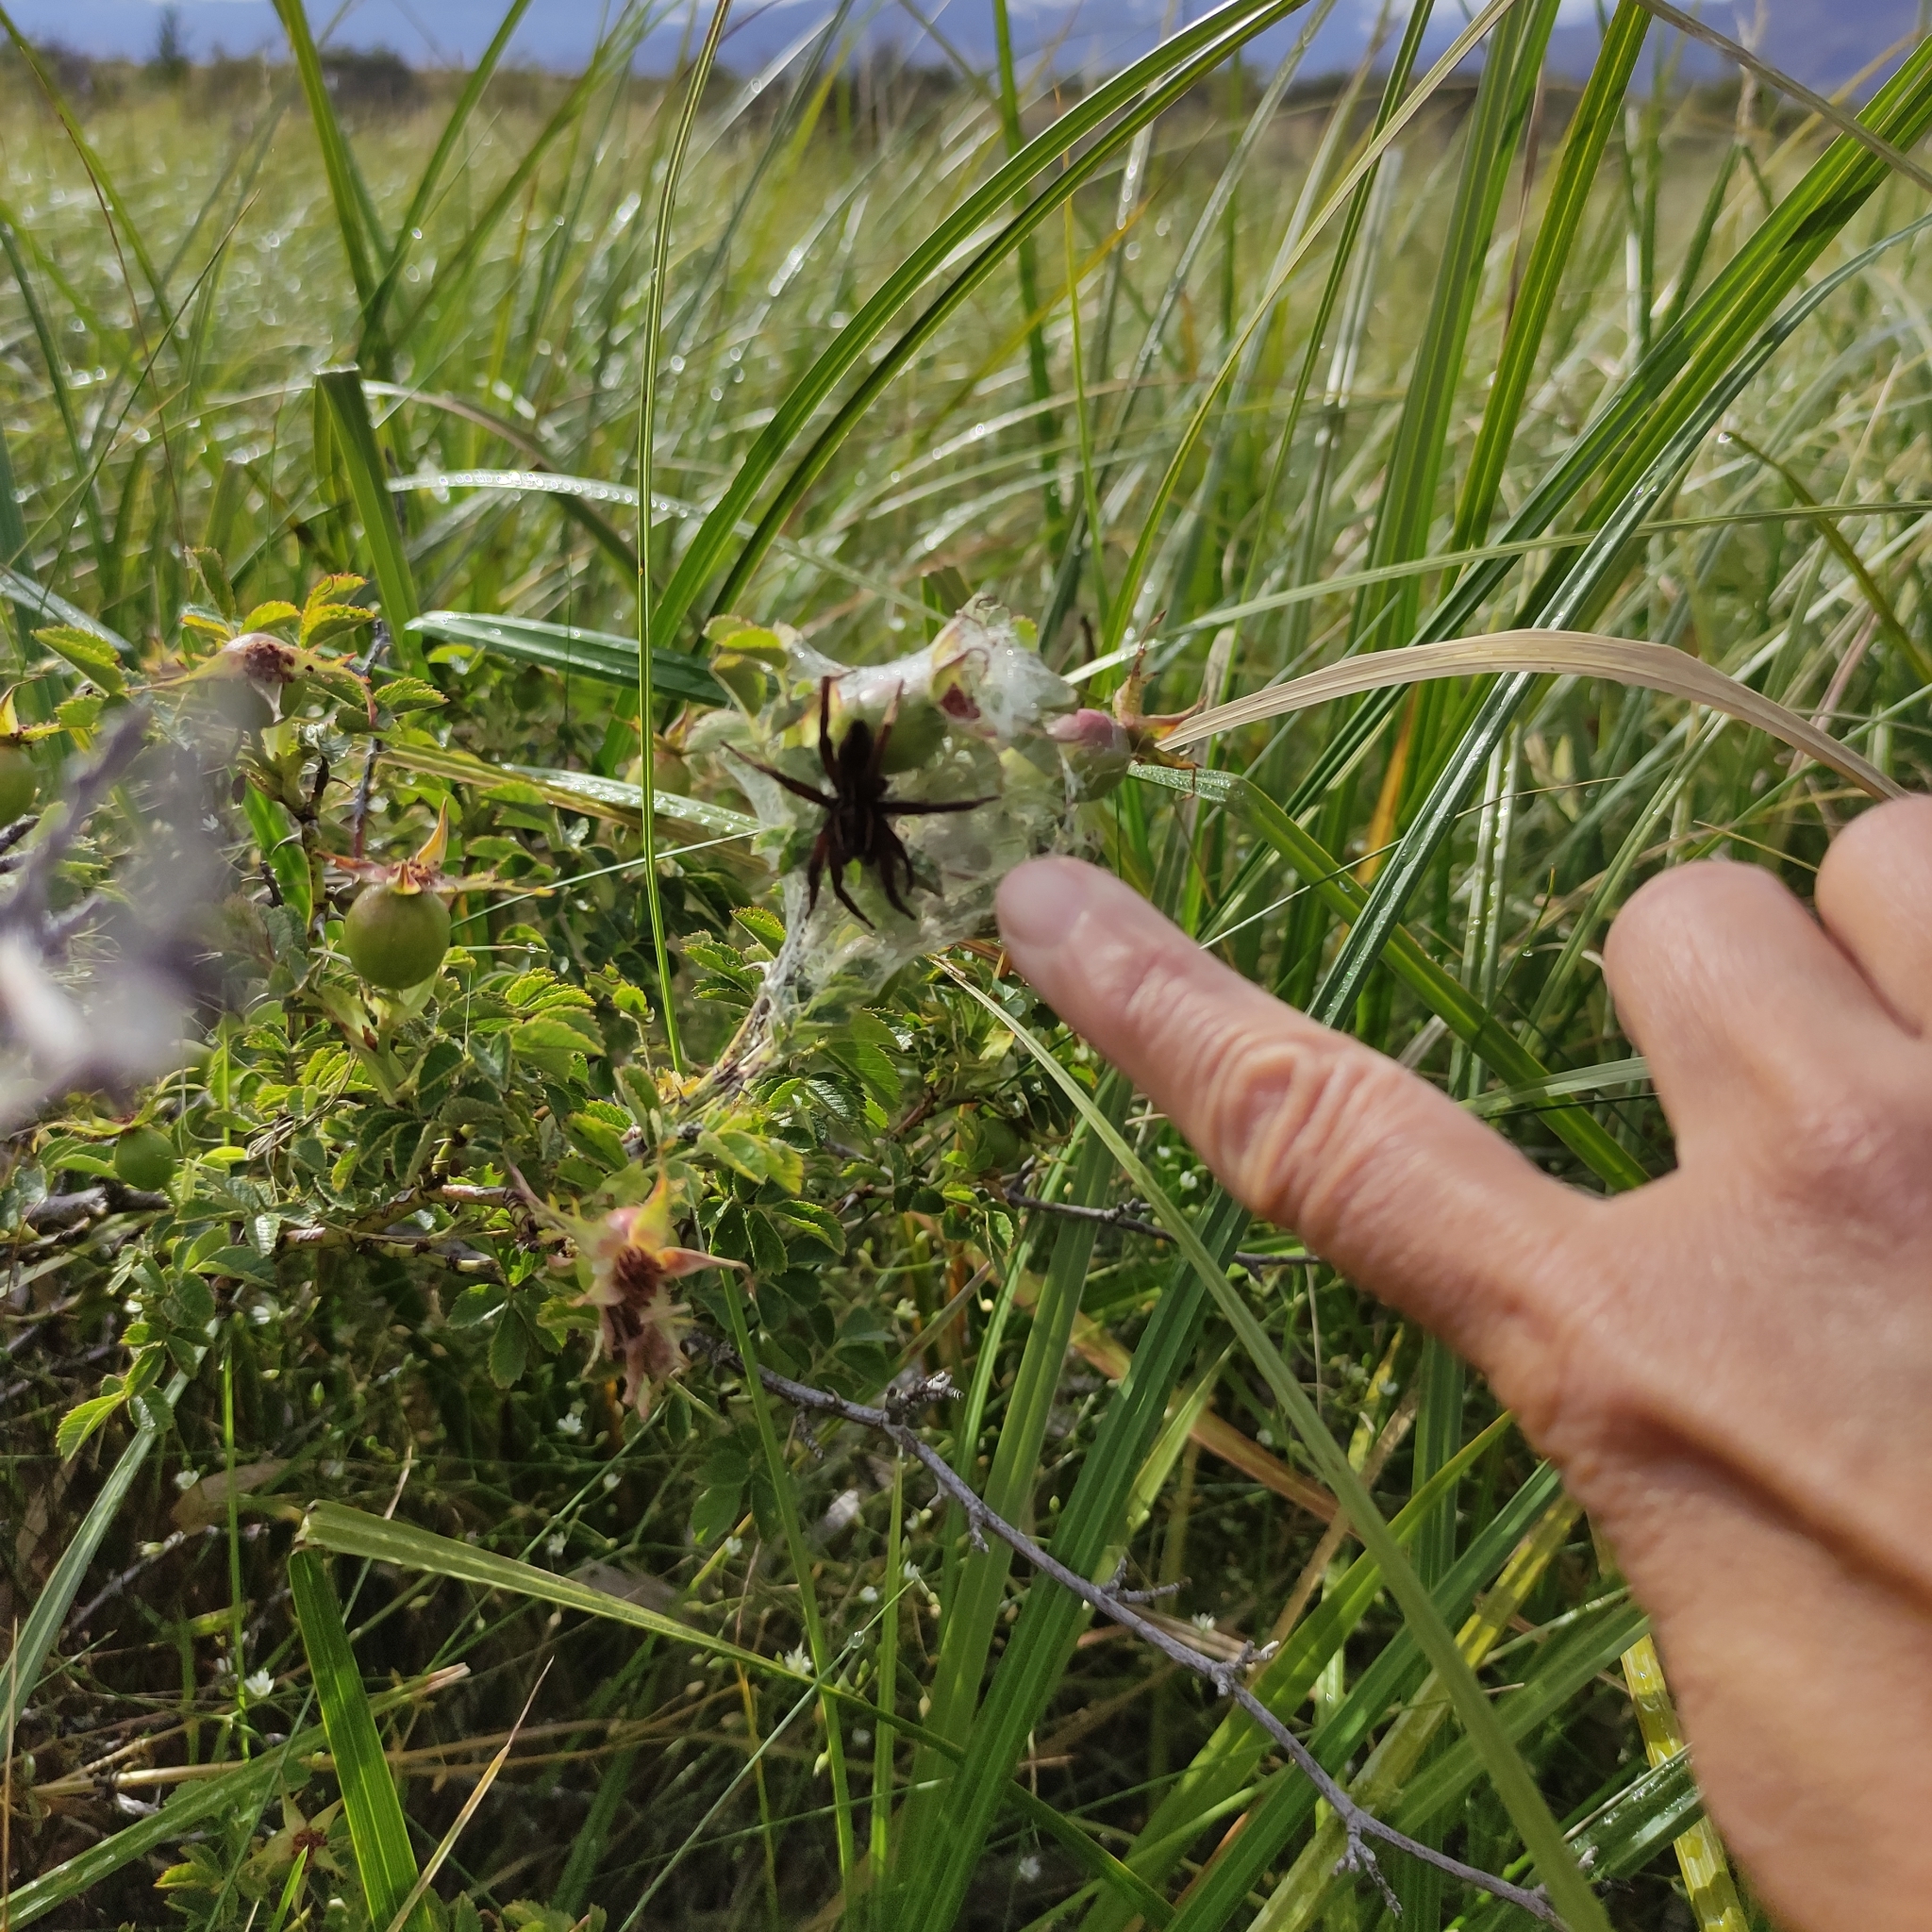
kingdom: Animalia
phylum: Arthropoda
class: Arachnida
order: Araneae
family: Pisauridae
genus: Dolomedes
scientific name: Dolomedes minor
